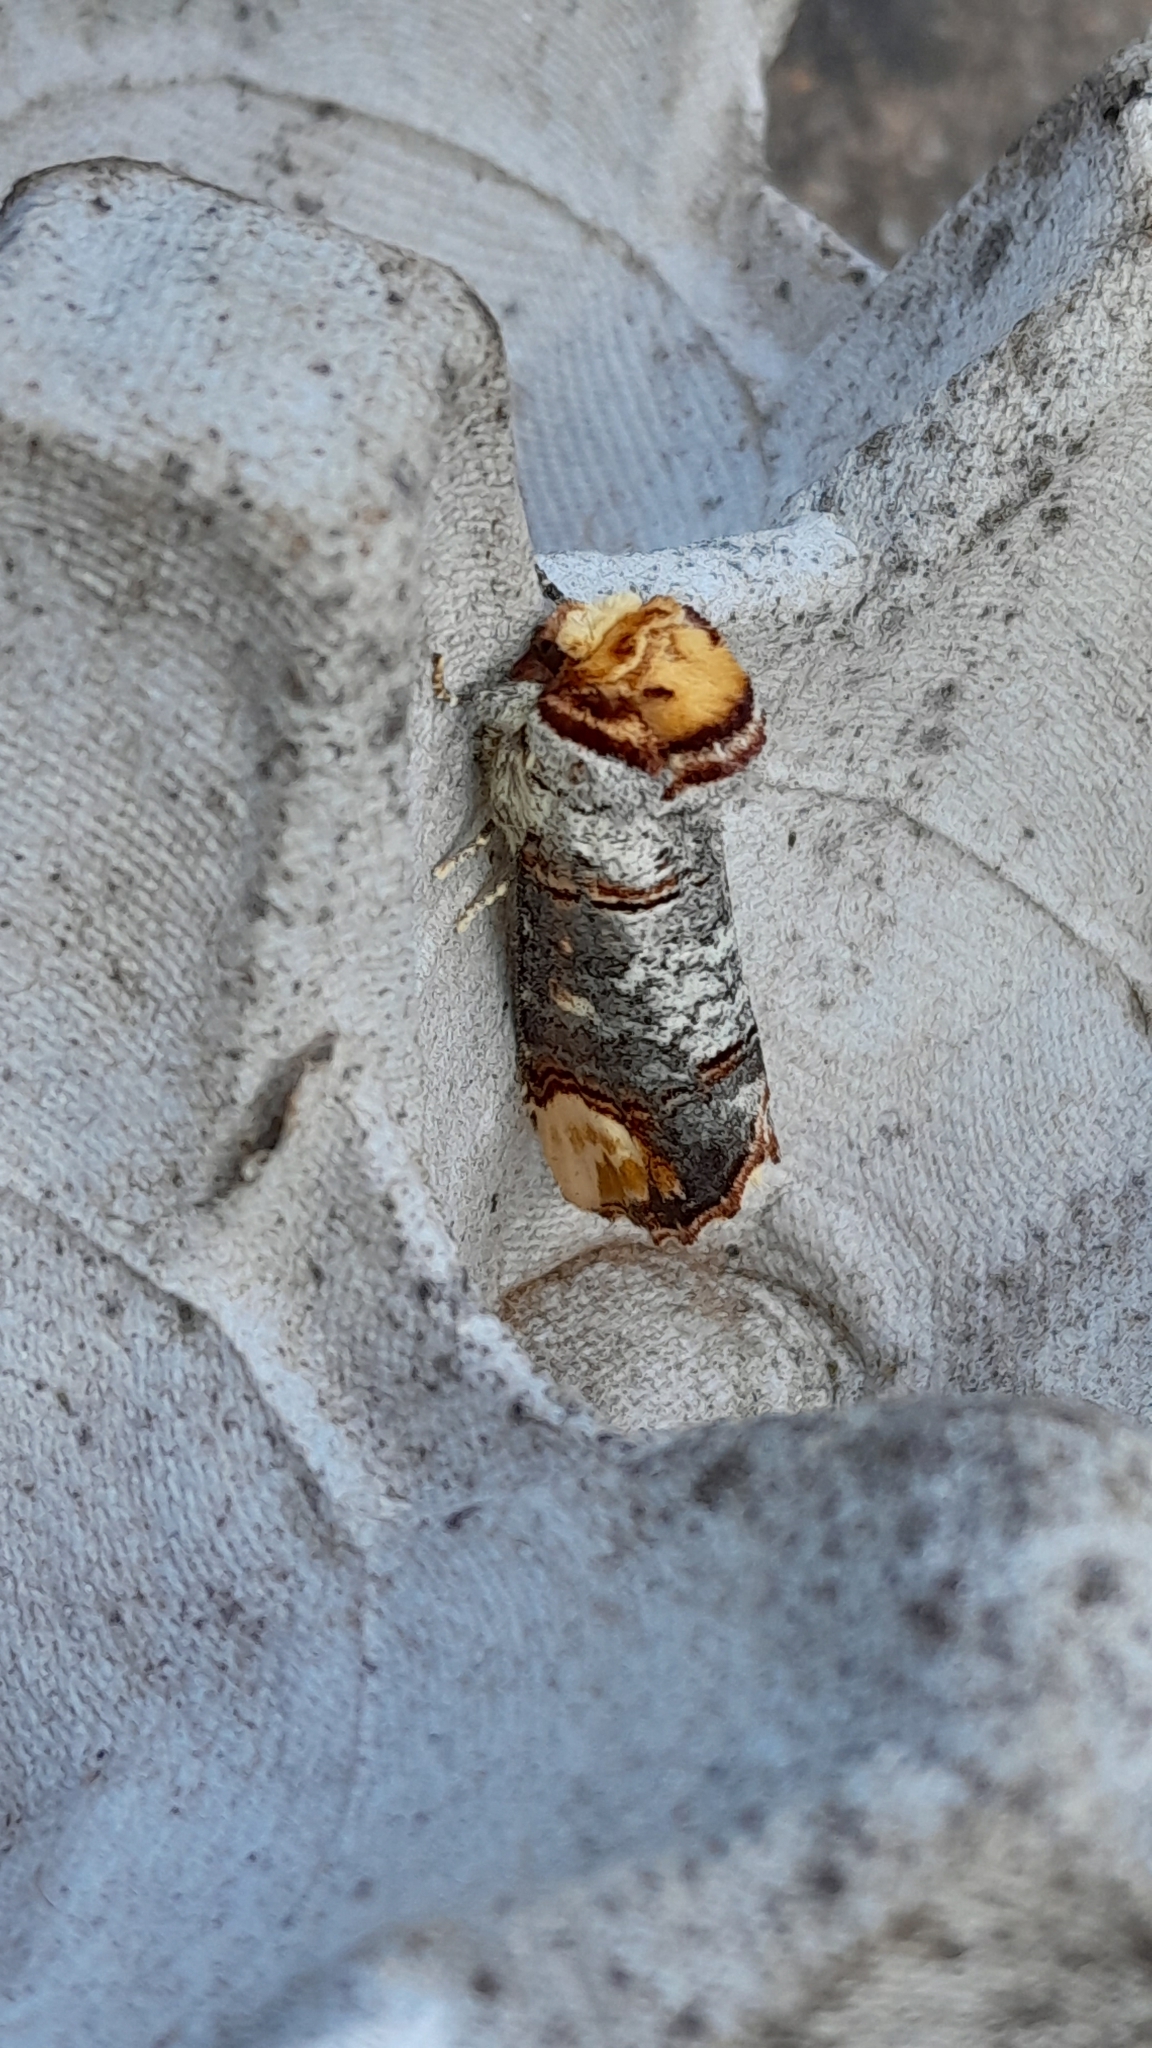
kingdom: Animalia
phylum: Arthropoda
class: Insecta
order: Lepidoptera
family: Notodontidae
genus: Phalera
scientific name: Phalera bucephala
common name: Buff-tip
